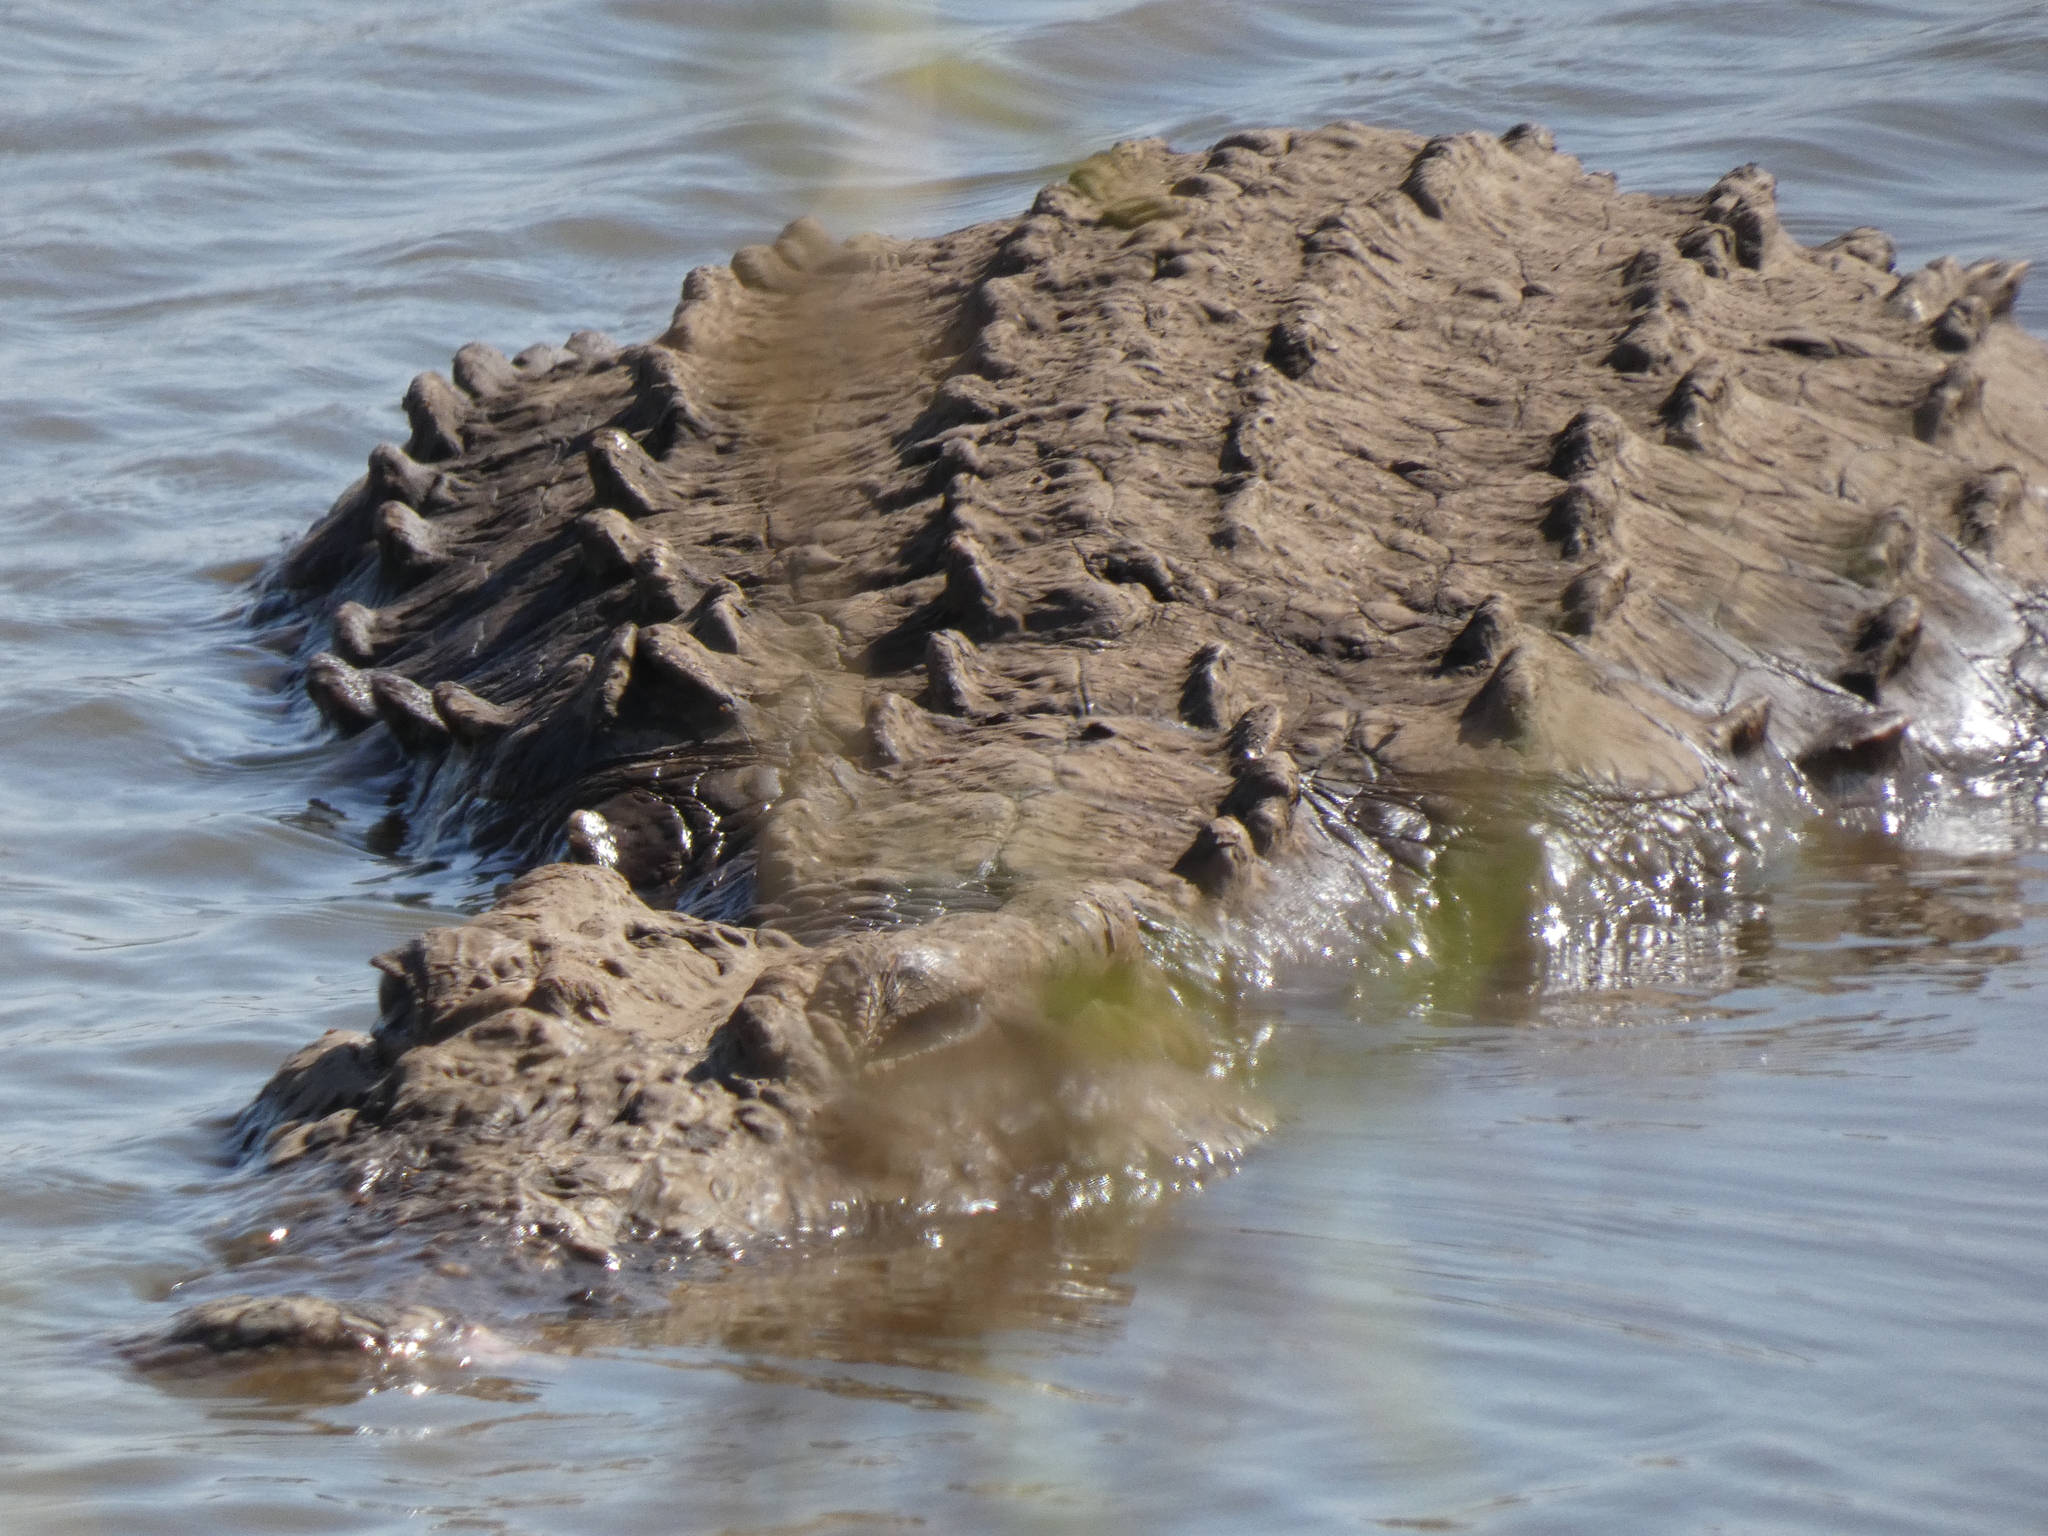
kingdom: Animalia
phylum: Chordata
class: Crocodylia
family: Crocodylidae
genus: Crocodylus
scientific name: Crocodylus niloticus
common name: Nile crocodile
